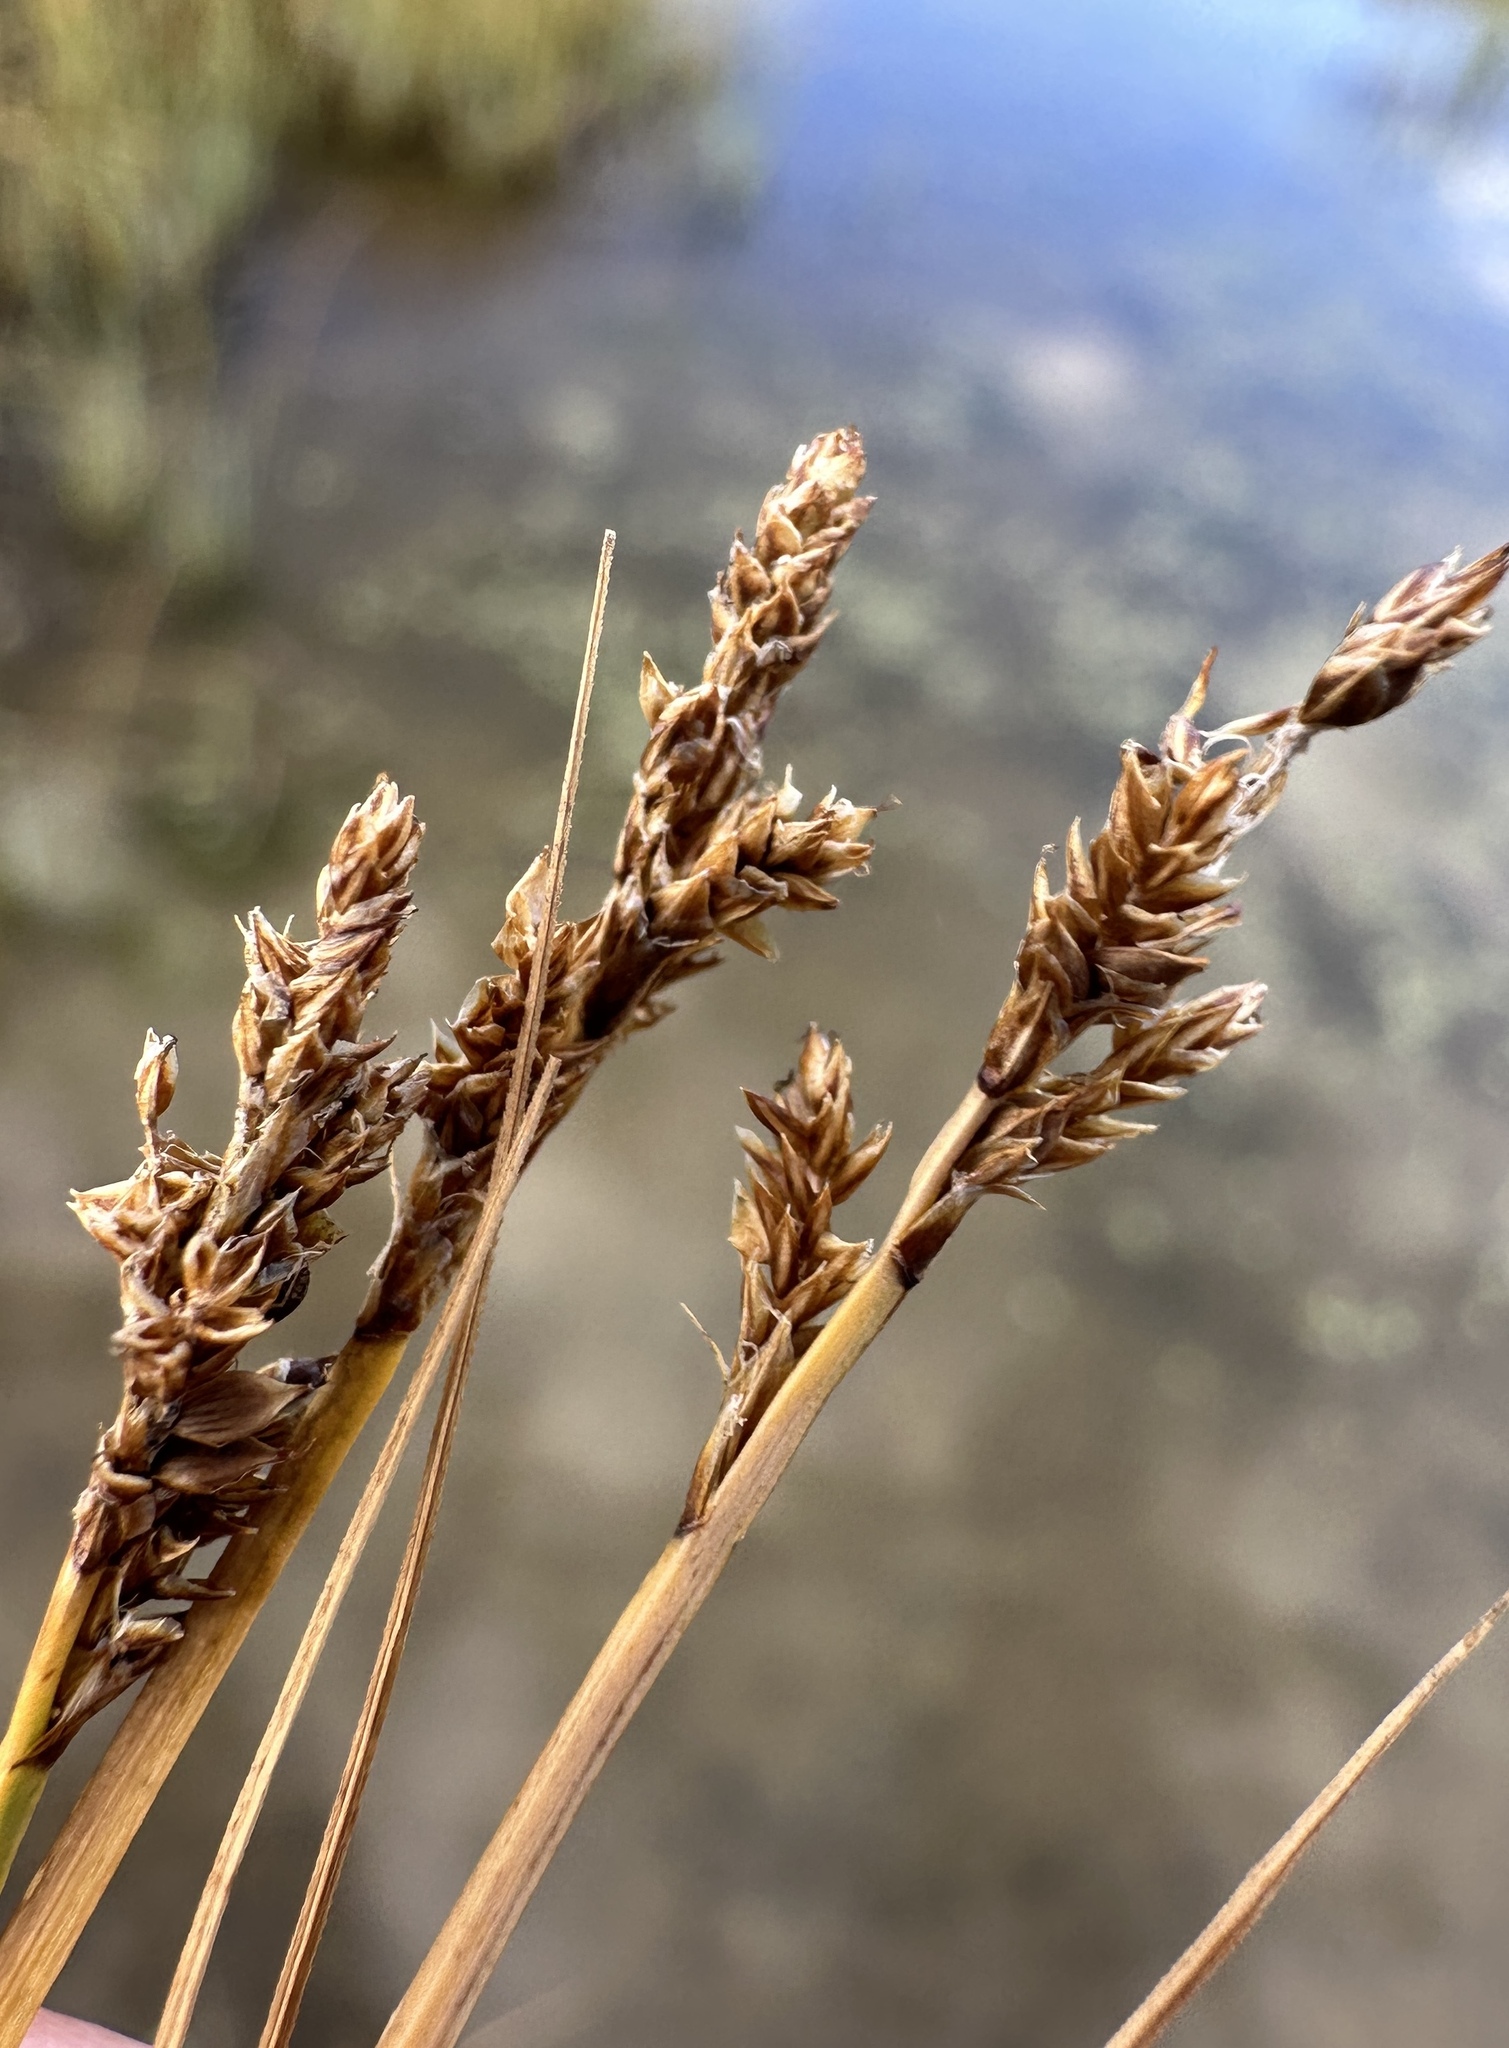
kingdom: Plantae
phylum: Tracheophyta
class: Liliopsida
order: Poales
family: Cyperaceae
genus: Carex
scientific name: Carex praeceptorum
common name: Early sedge
